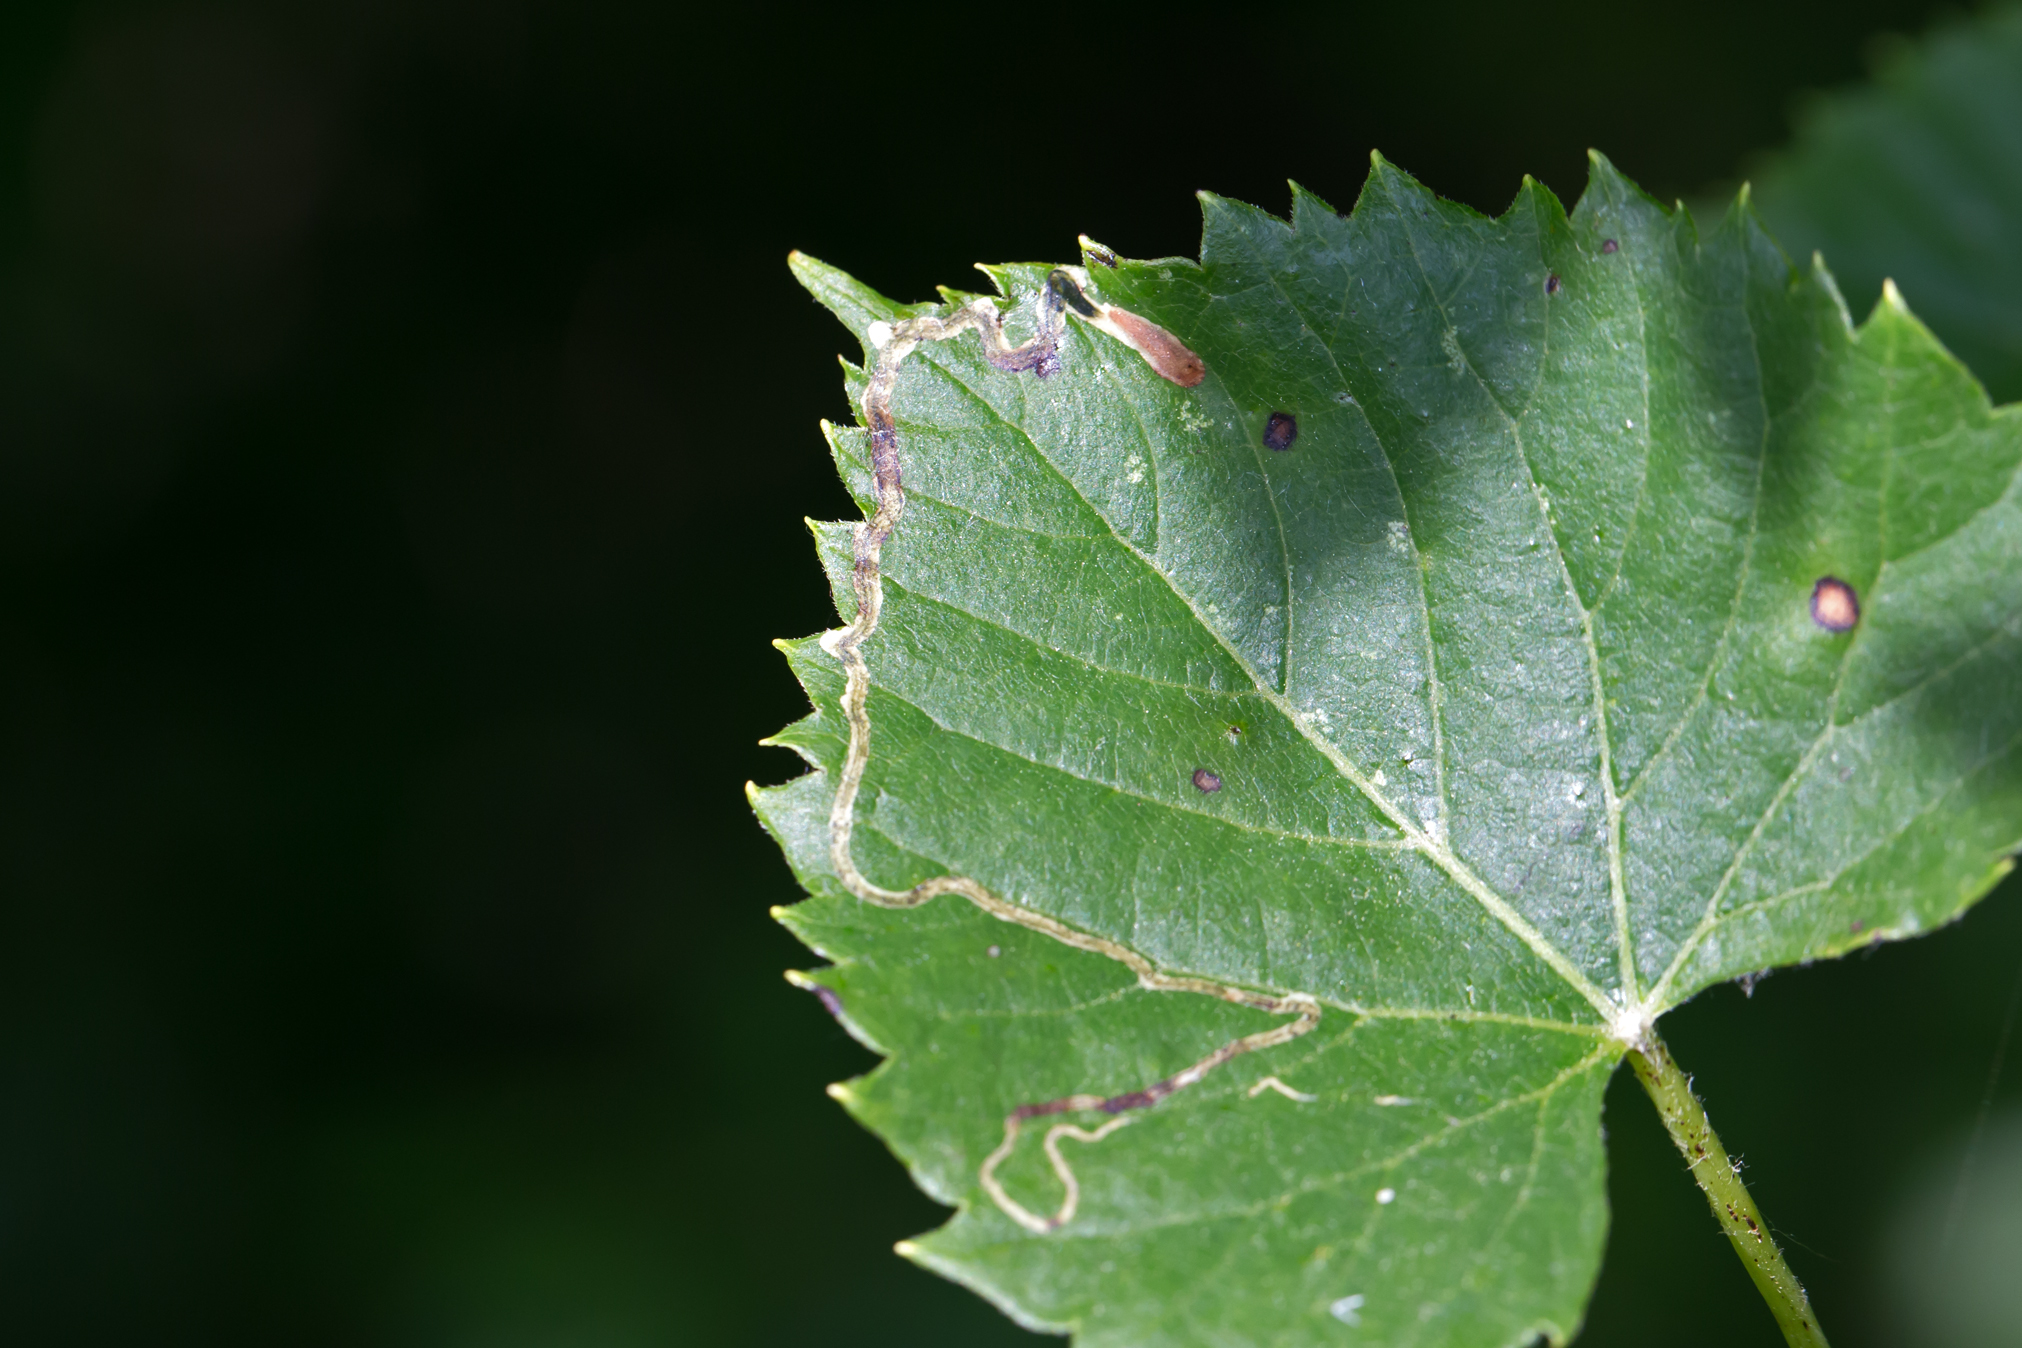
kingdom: Animalia
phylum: Arthropoda
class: Insecta
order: Lepidoptera
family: Gracillariidae
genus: Phyllocnistis
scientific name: Phyllocnistis vitifoliella
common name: Grape leaf-miner moth
